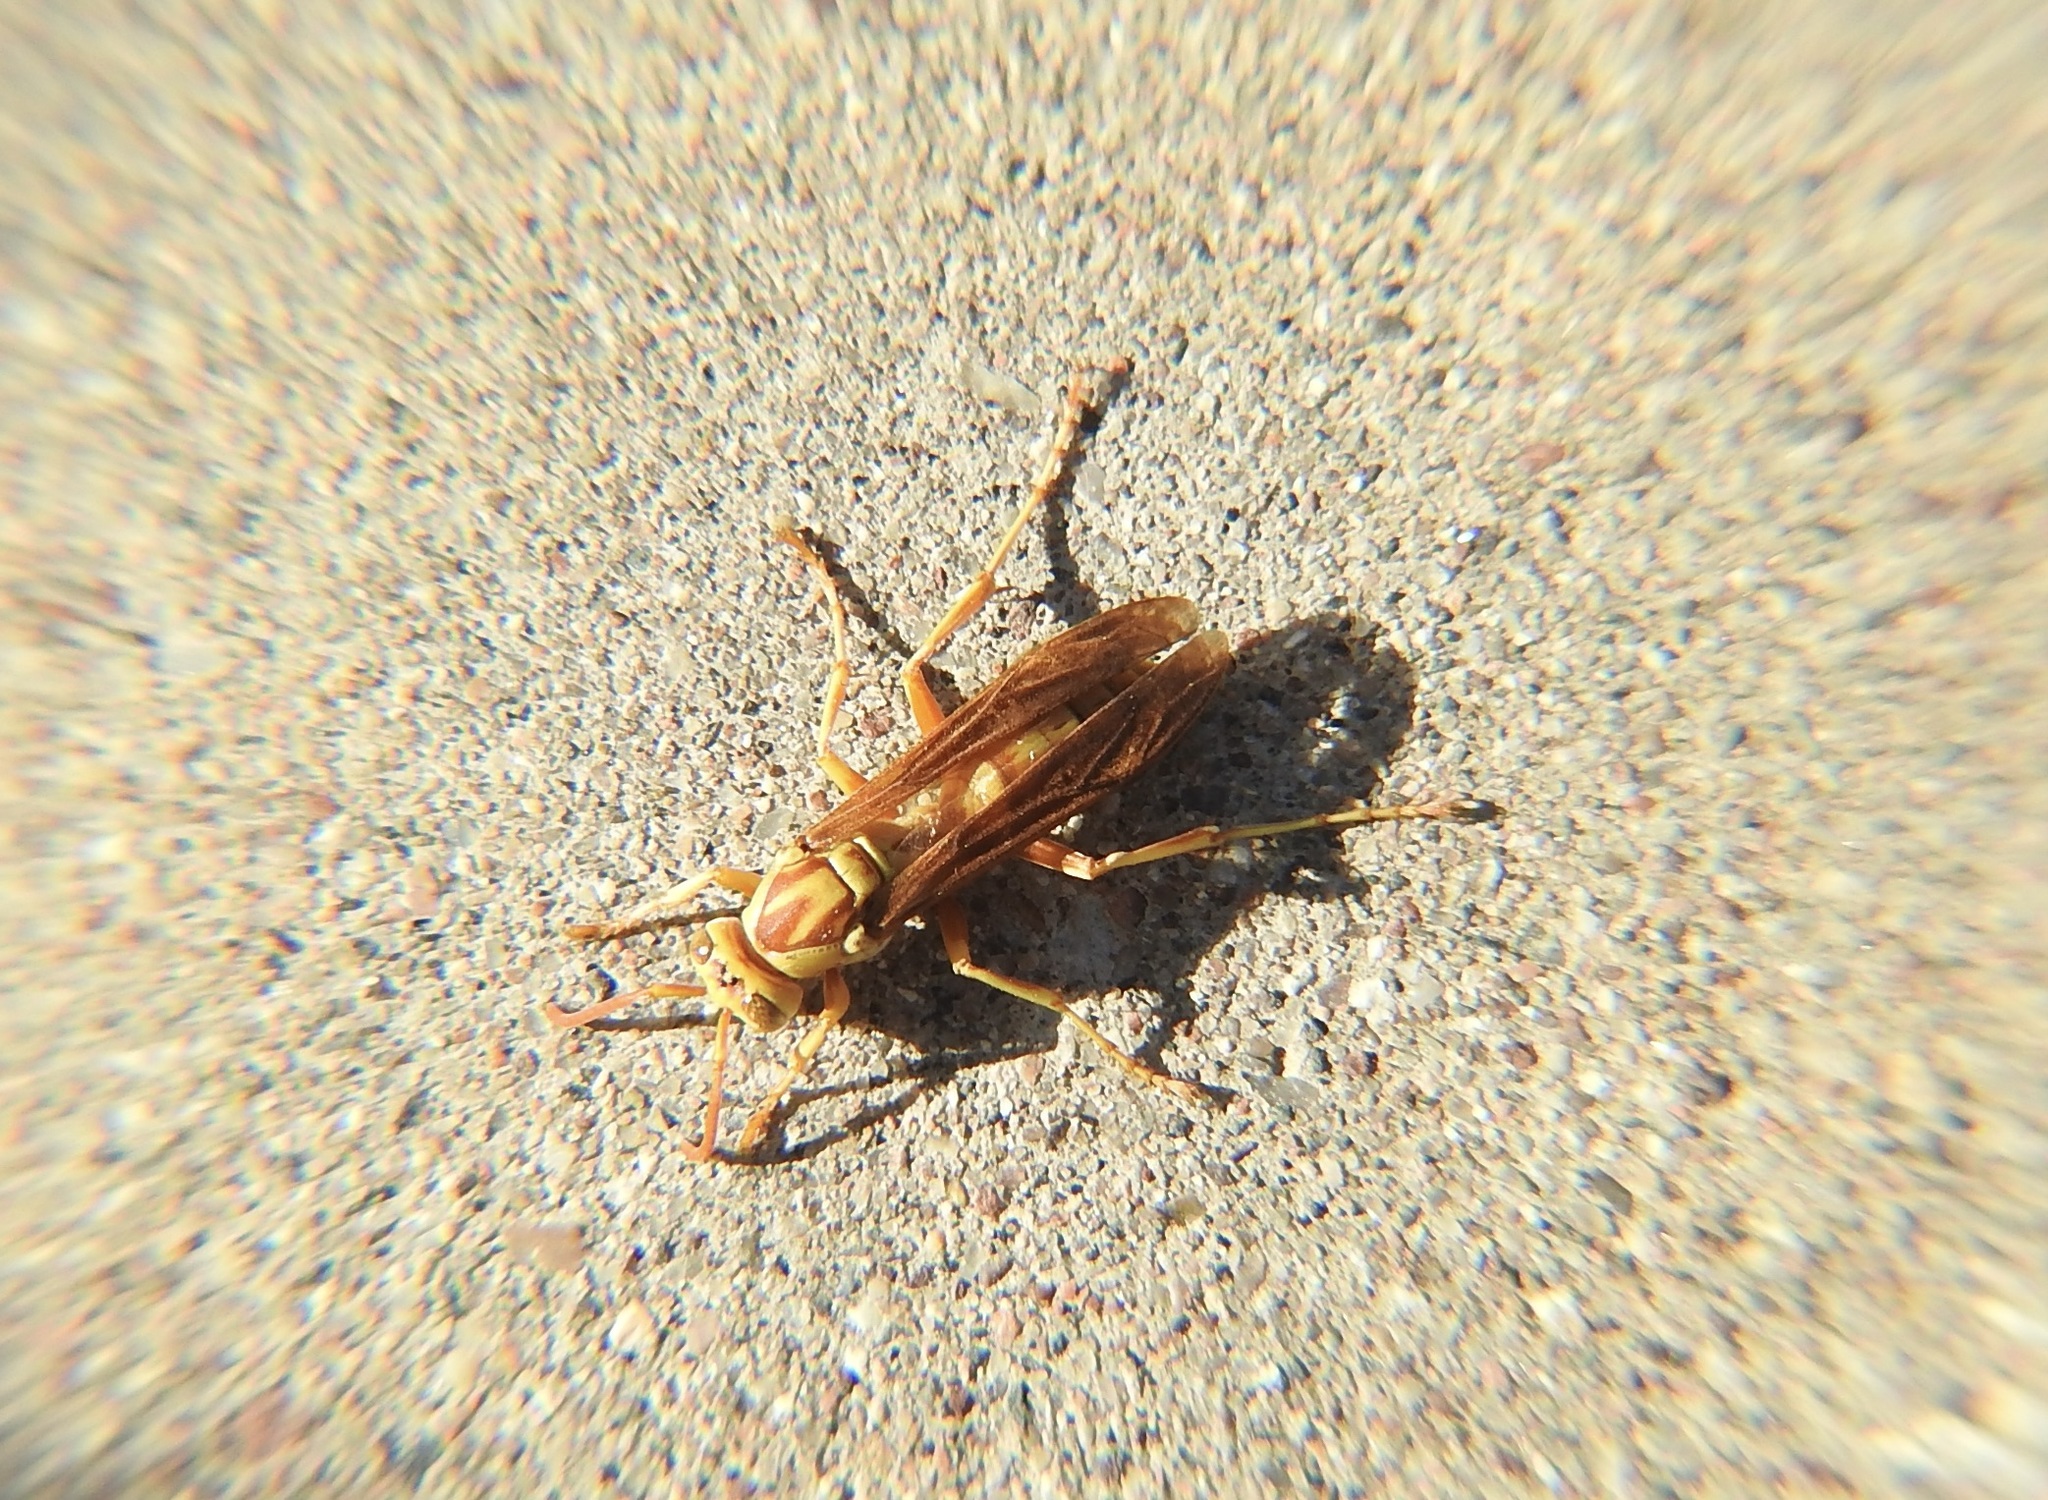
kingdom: Animalia
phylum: Arthropoda
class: Insecta
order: Hymenoptera
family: Eumenidae
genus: Polistes
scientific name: Polistes aurifer
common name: Paper wasp
